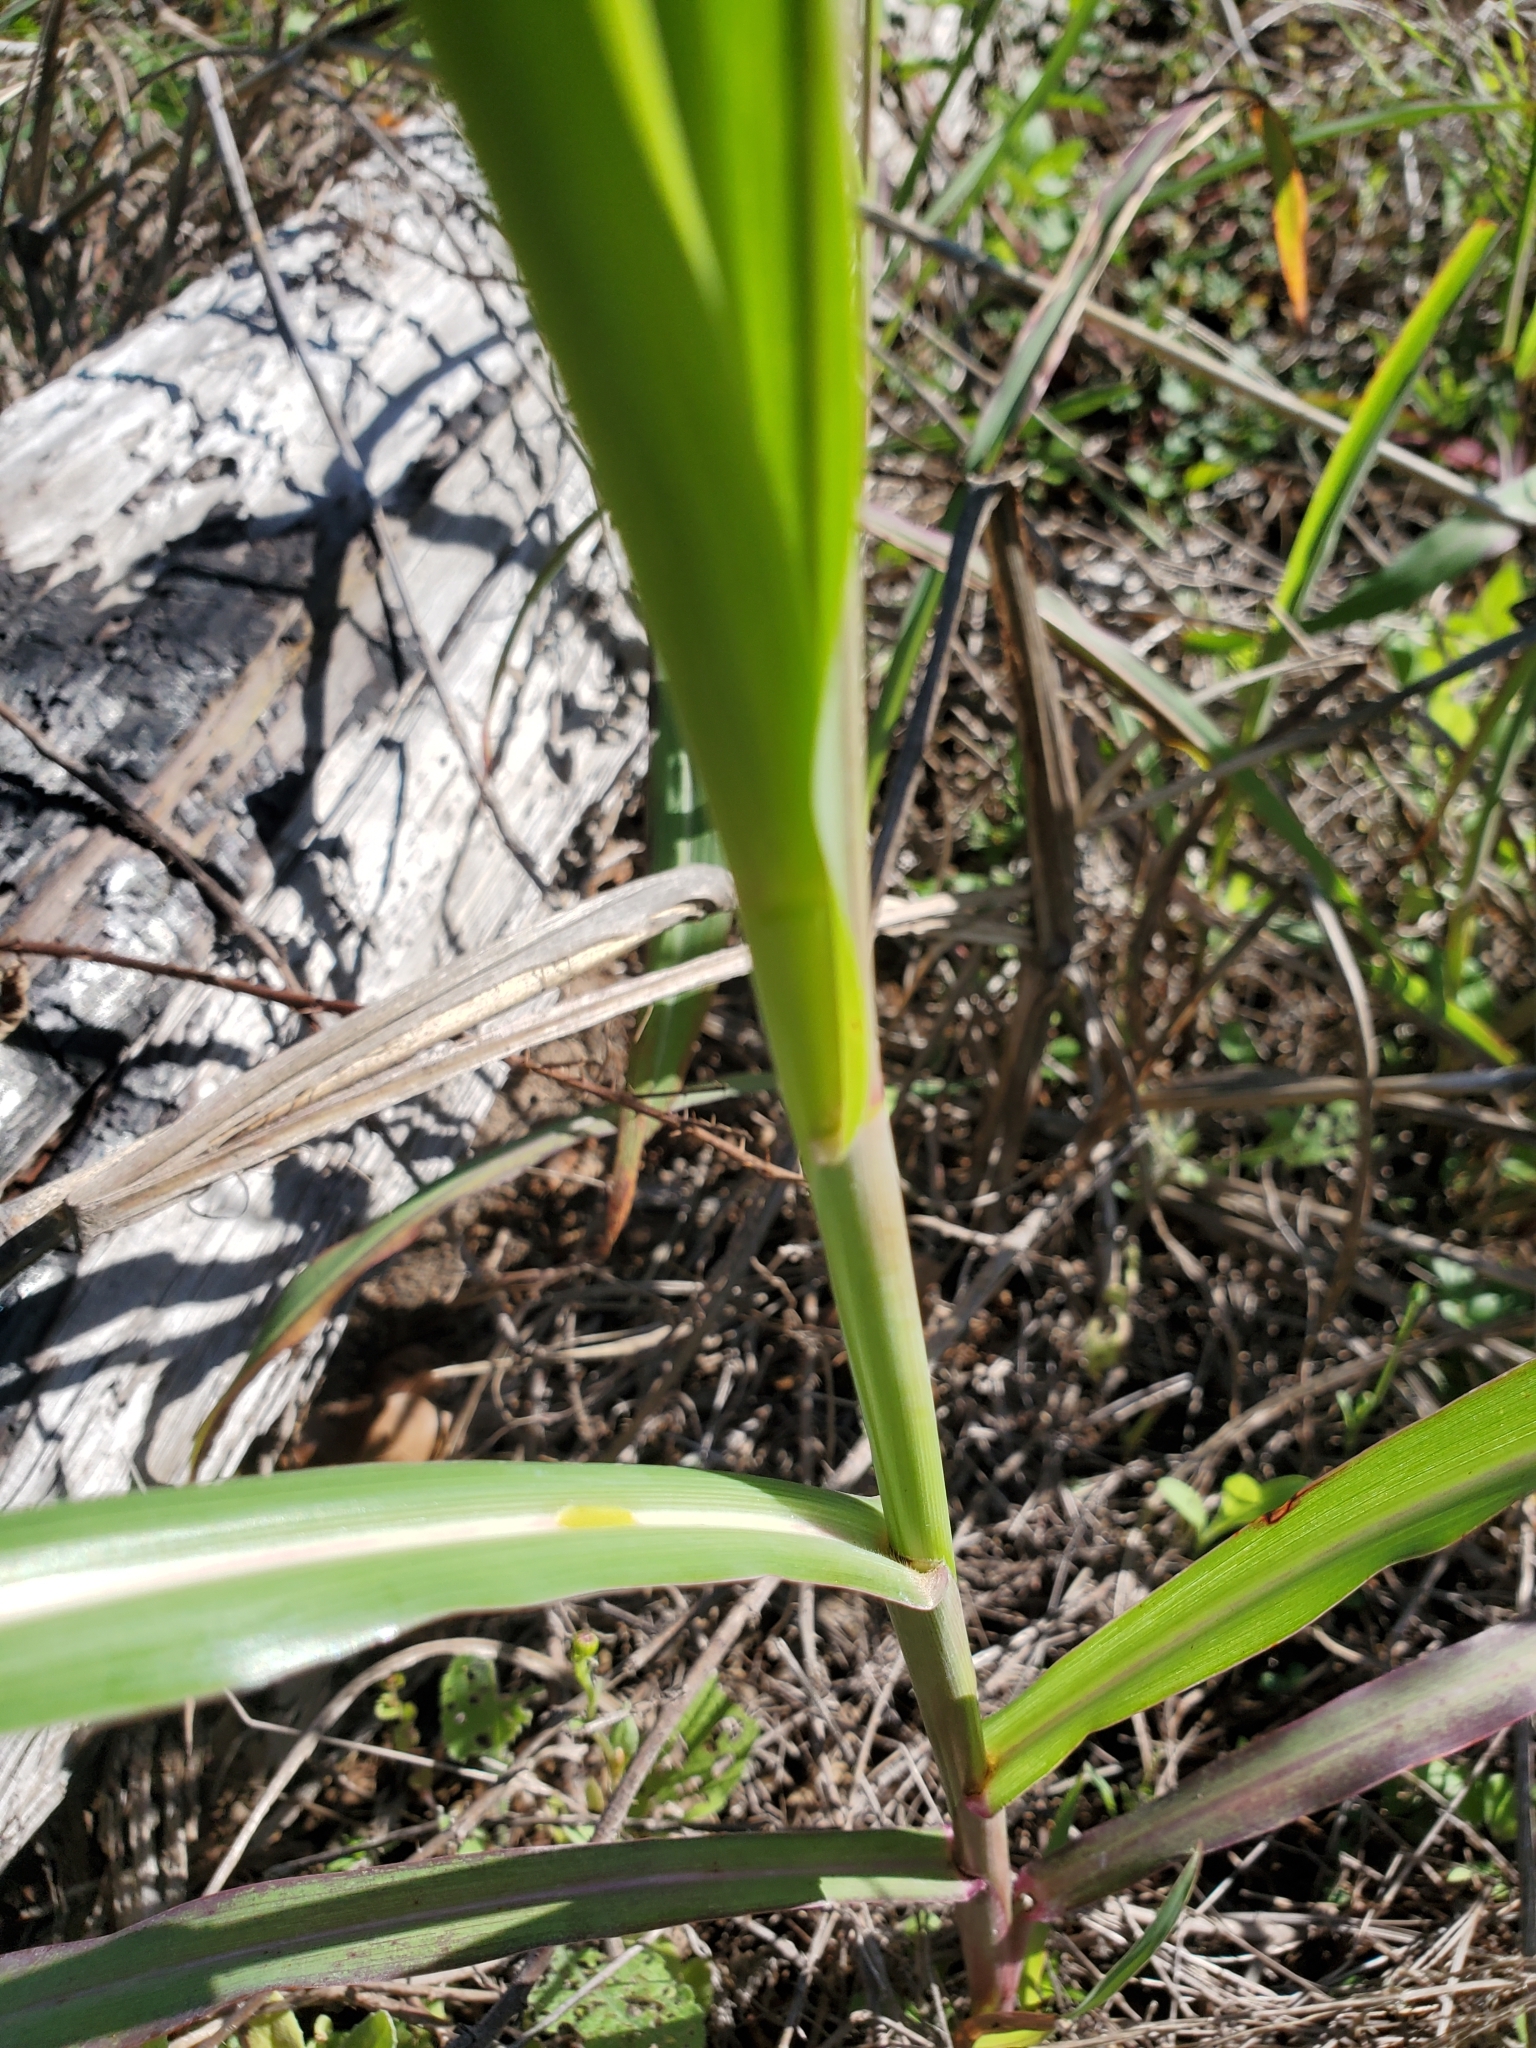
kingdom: Plantae
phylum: Tracheophyta
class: Liliopsida
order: Poales
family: Poaceae
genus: Sorghum
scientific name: Sorghum halepense
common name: Johnson-grass
